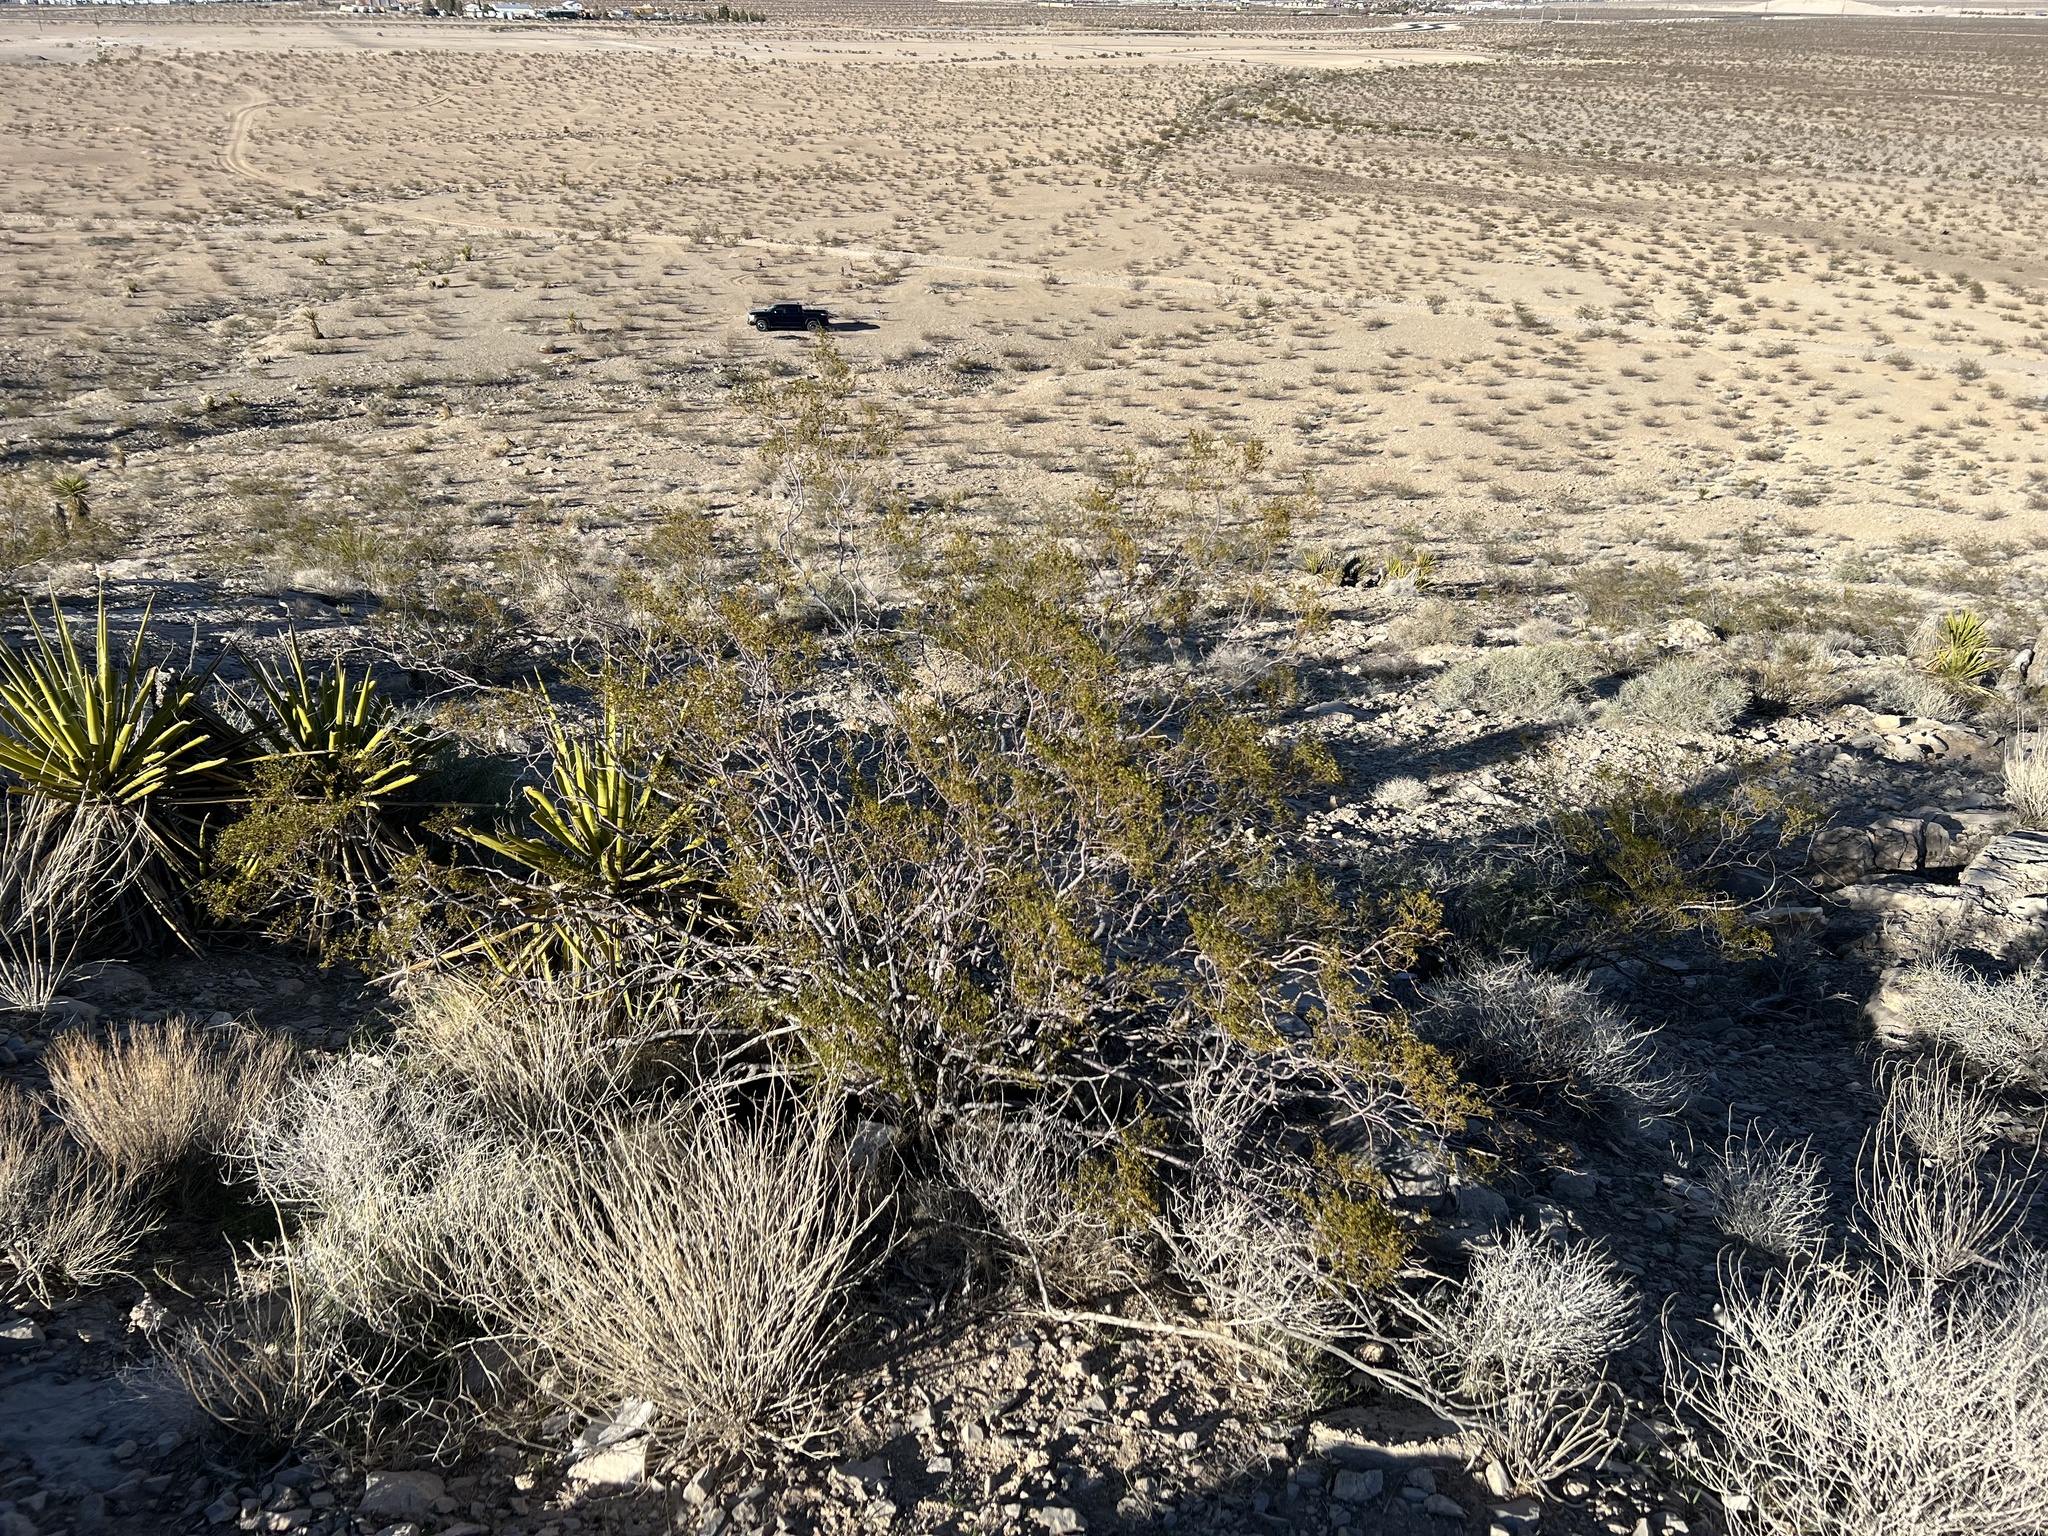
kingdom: Plantae
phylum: Tracheophyta
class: Magnoliopsida
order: Zygophyllales
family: Zygophyllaceae
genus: Larrea
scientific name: Larrea tridentata
